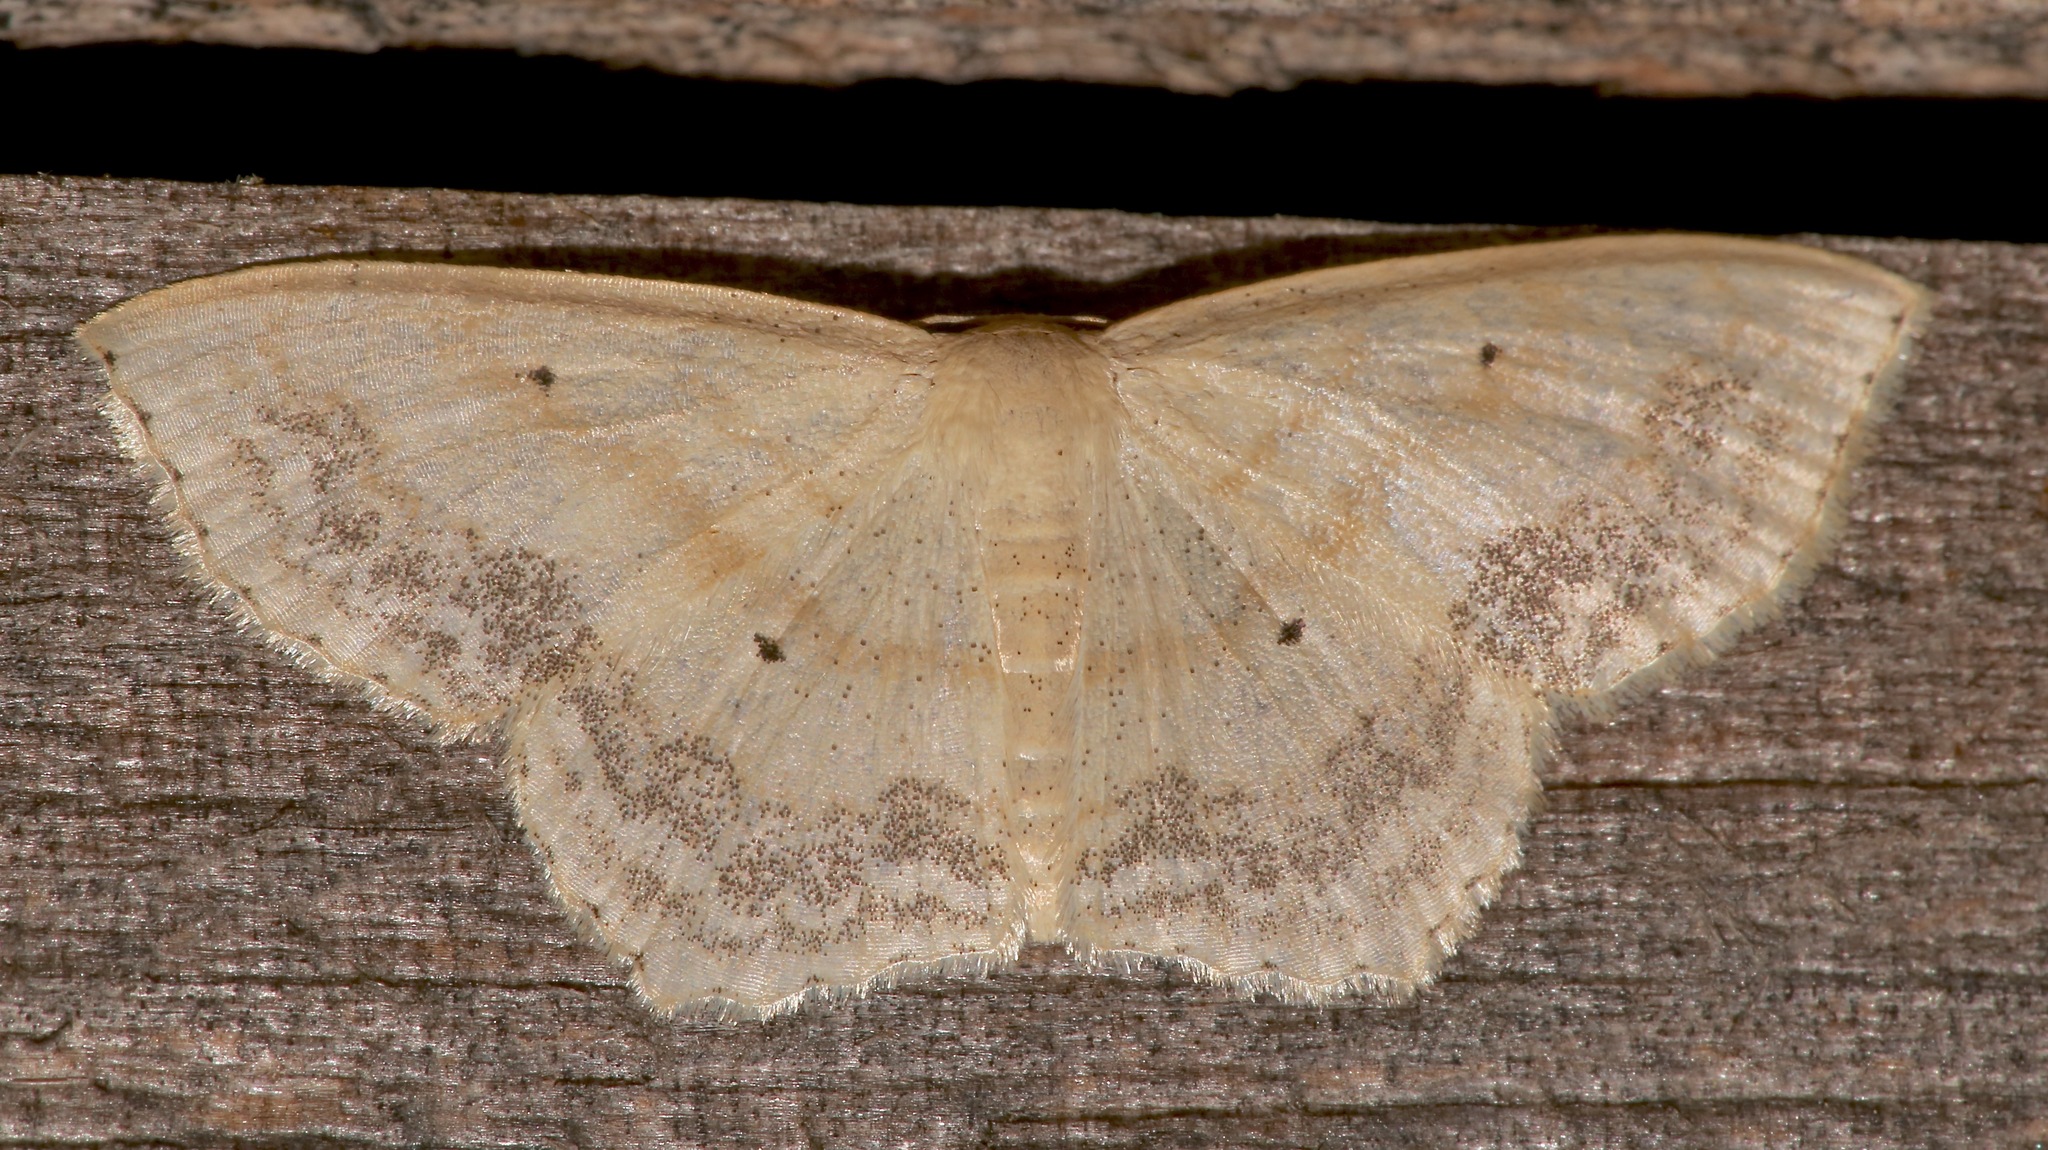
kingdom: Animalia
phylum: Arthropoda
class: Insecta
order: Lepidoptera
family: Geometridae
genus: Scopula
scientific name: Scopula limboundata
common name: Large lace border
